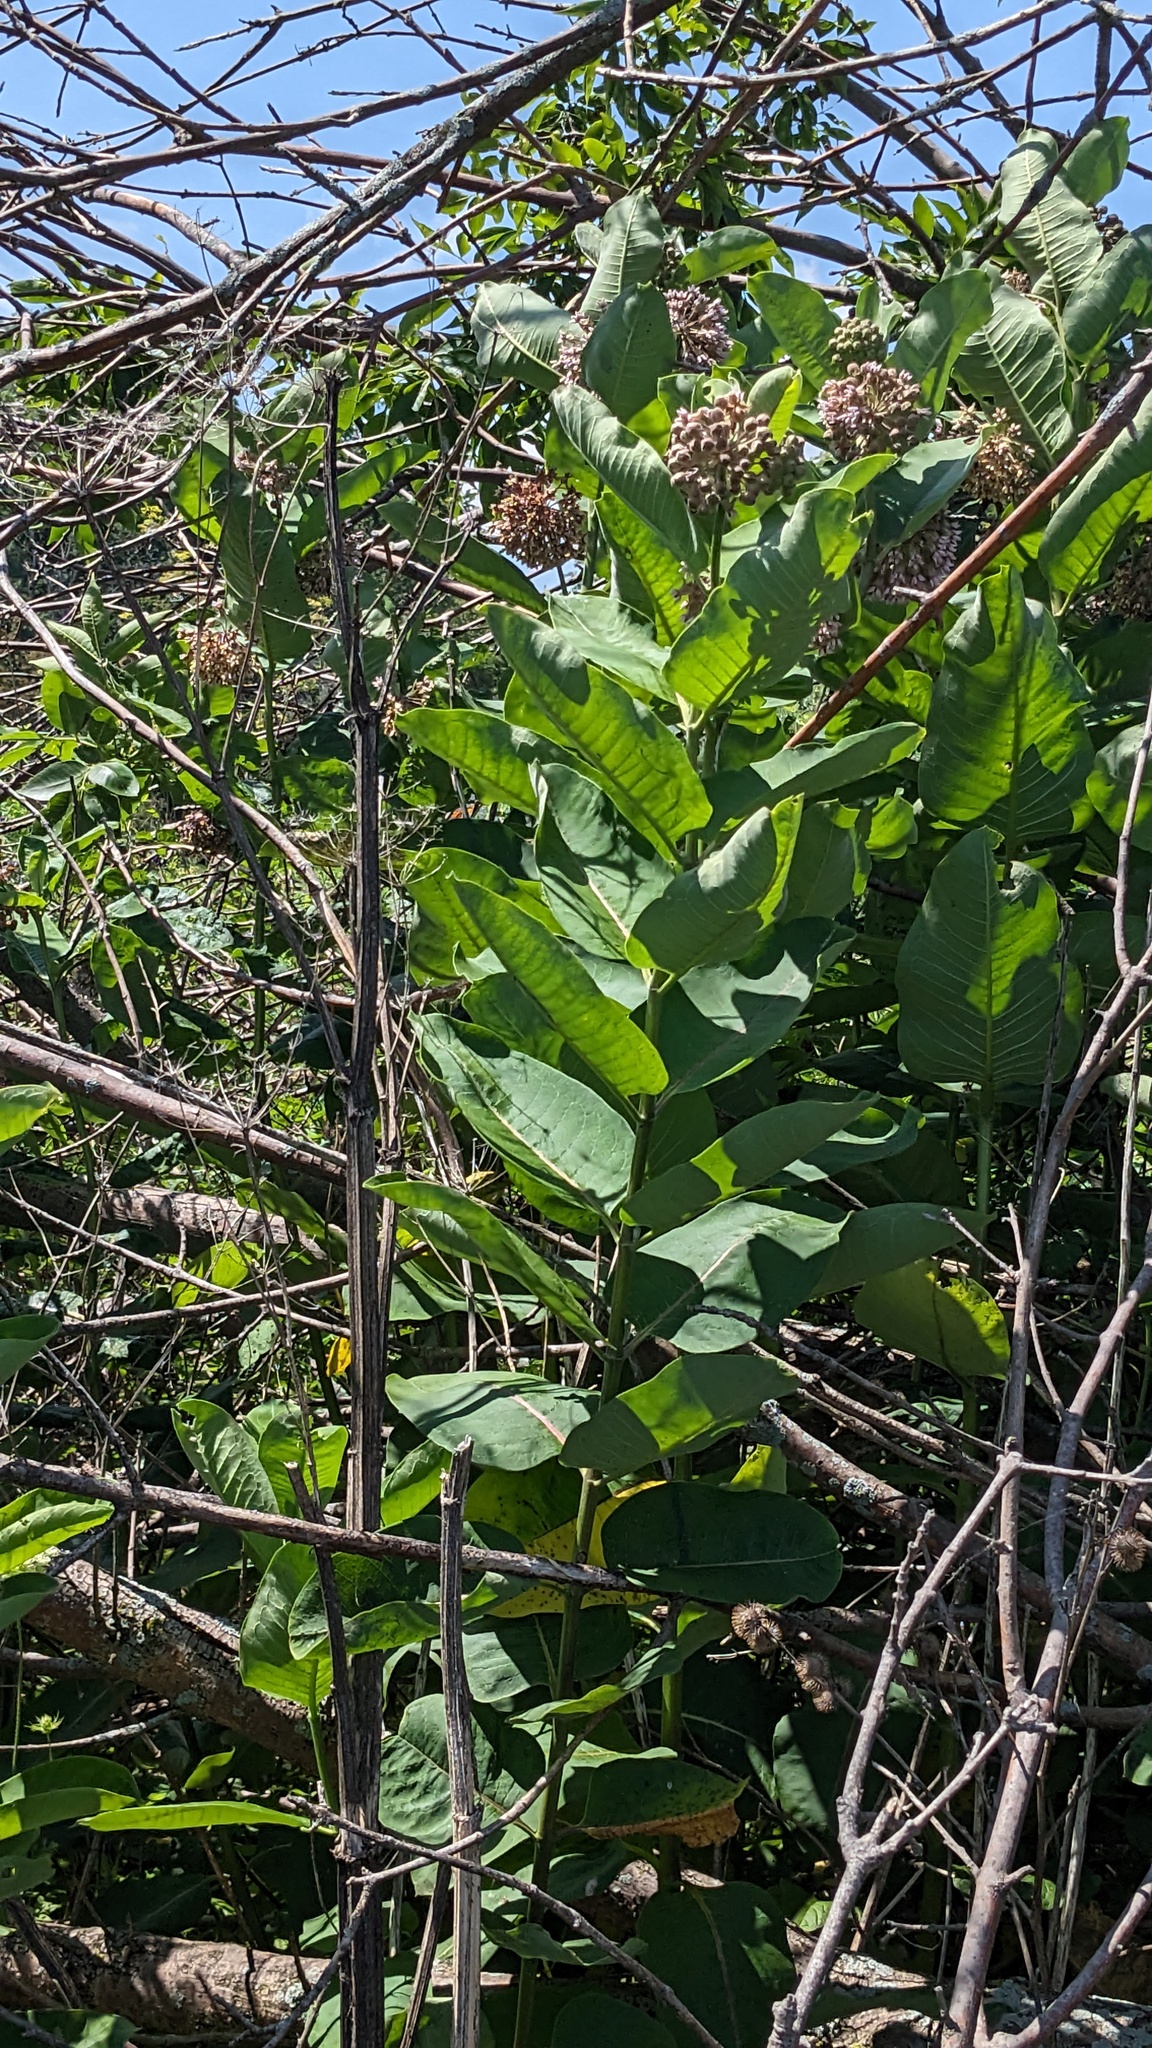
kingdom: Plantae
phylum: Tracheophyta
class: Magnoliopsida
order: Gentianales
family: Apocynaceae
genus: Asclepias
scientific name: Asclepias syriaca
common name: Common milkweed
